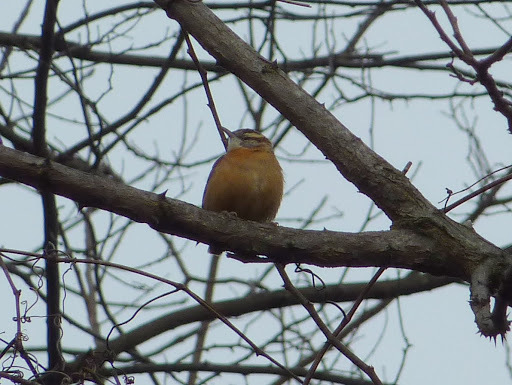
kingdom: Animalia
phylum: Chordata
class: Aves
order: Passeriformes
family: Troglodytidae
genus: Thryothorus
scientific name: Thryothorus ludovicianus
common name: Carolina wren
